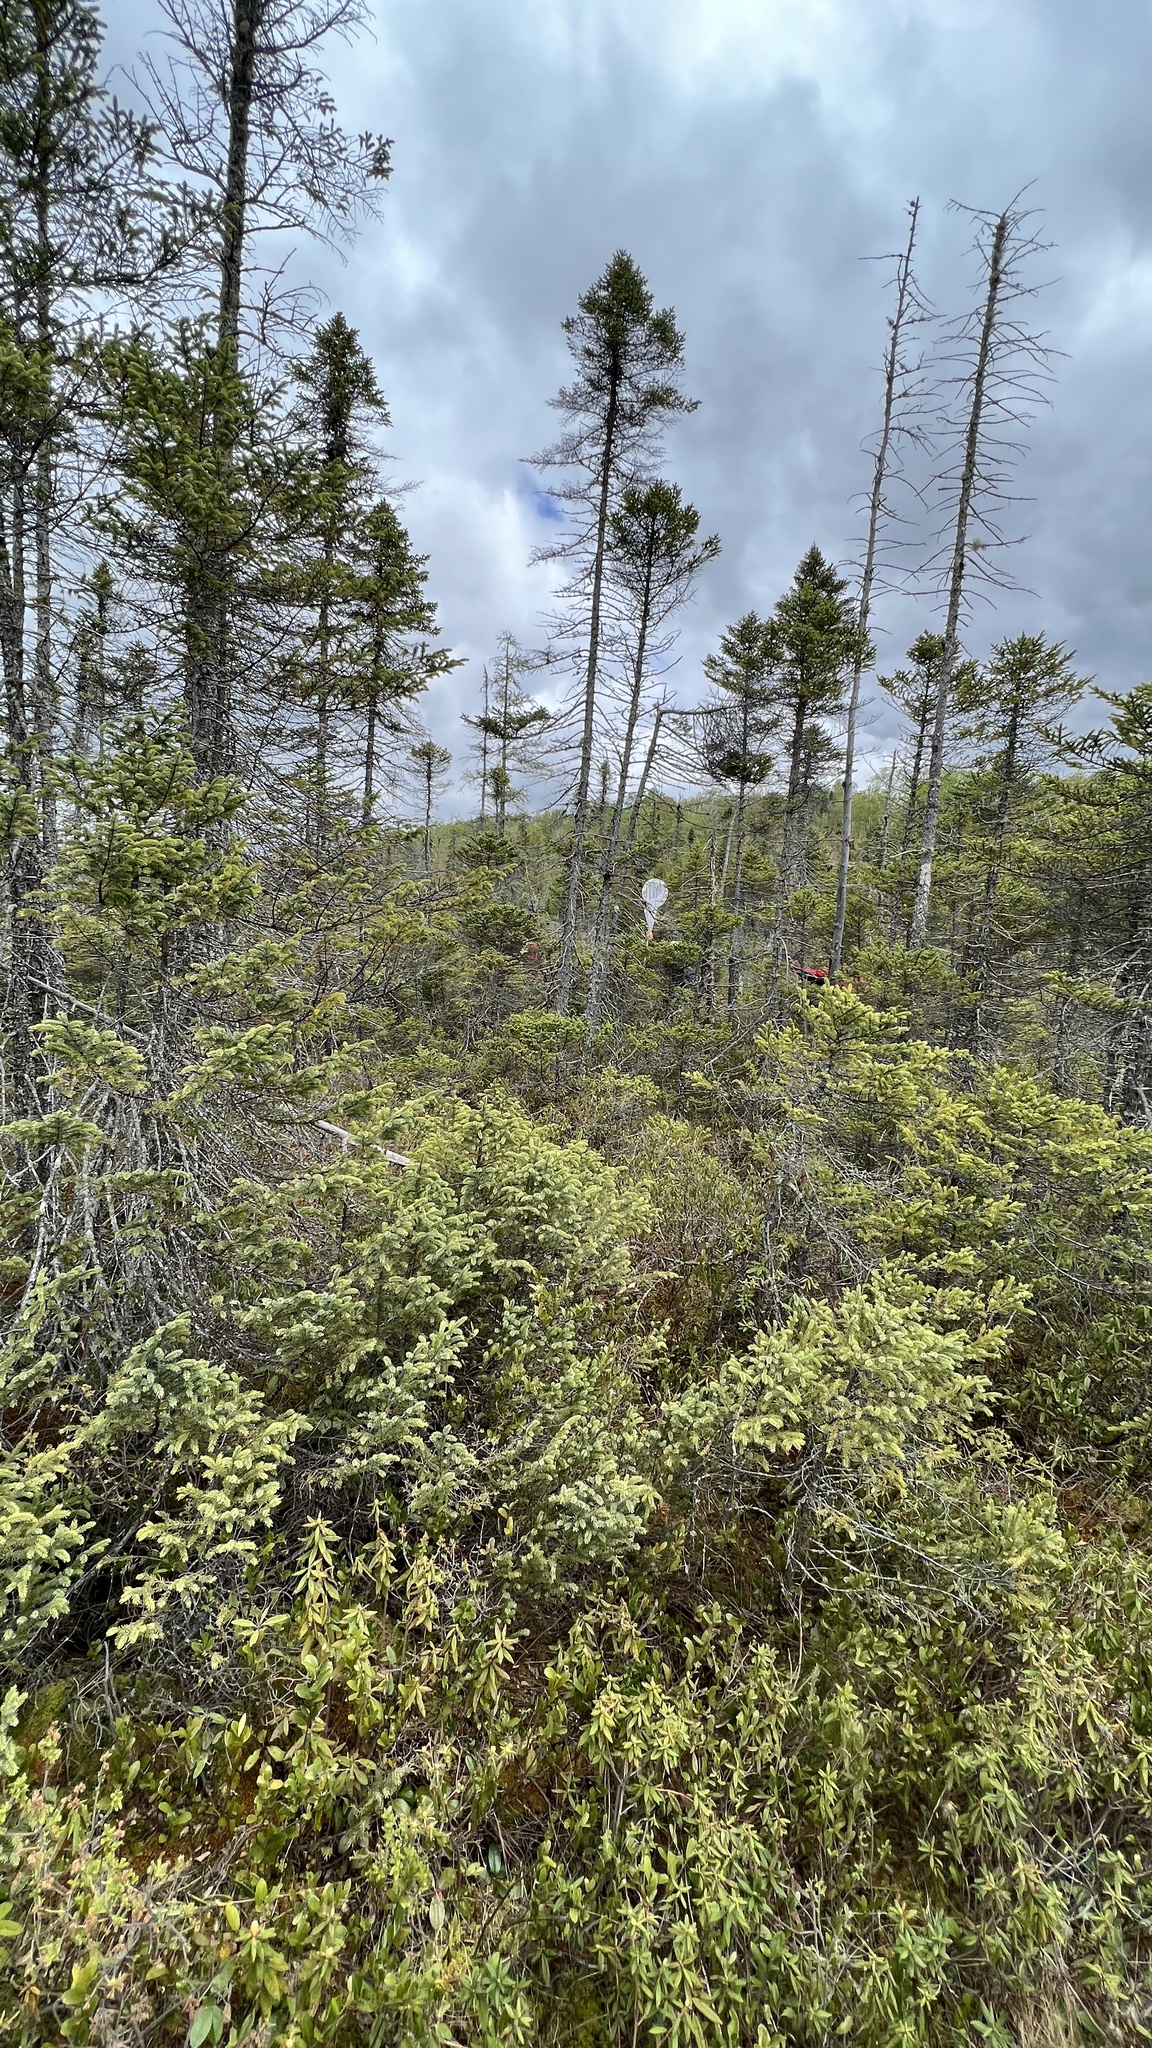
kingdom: Plantae
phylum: Tracheophyta
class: Pinopsida
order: Pinales
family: Pinaceae
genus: Picea
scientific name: Picea mariana
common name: Black spruce
